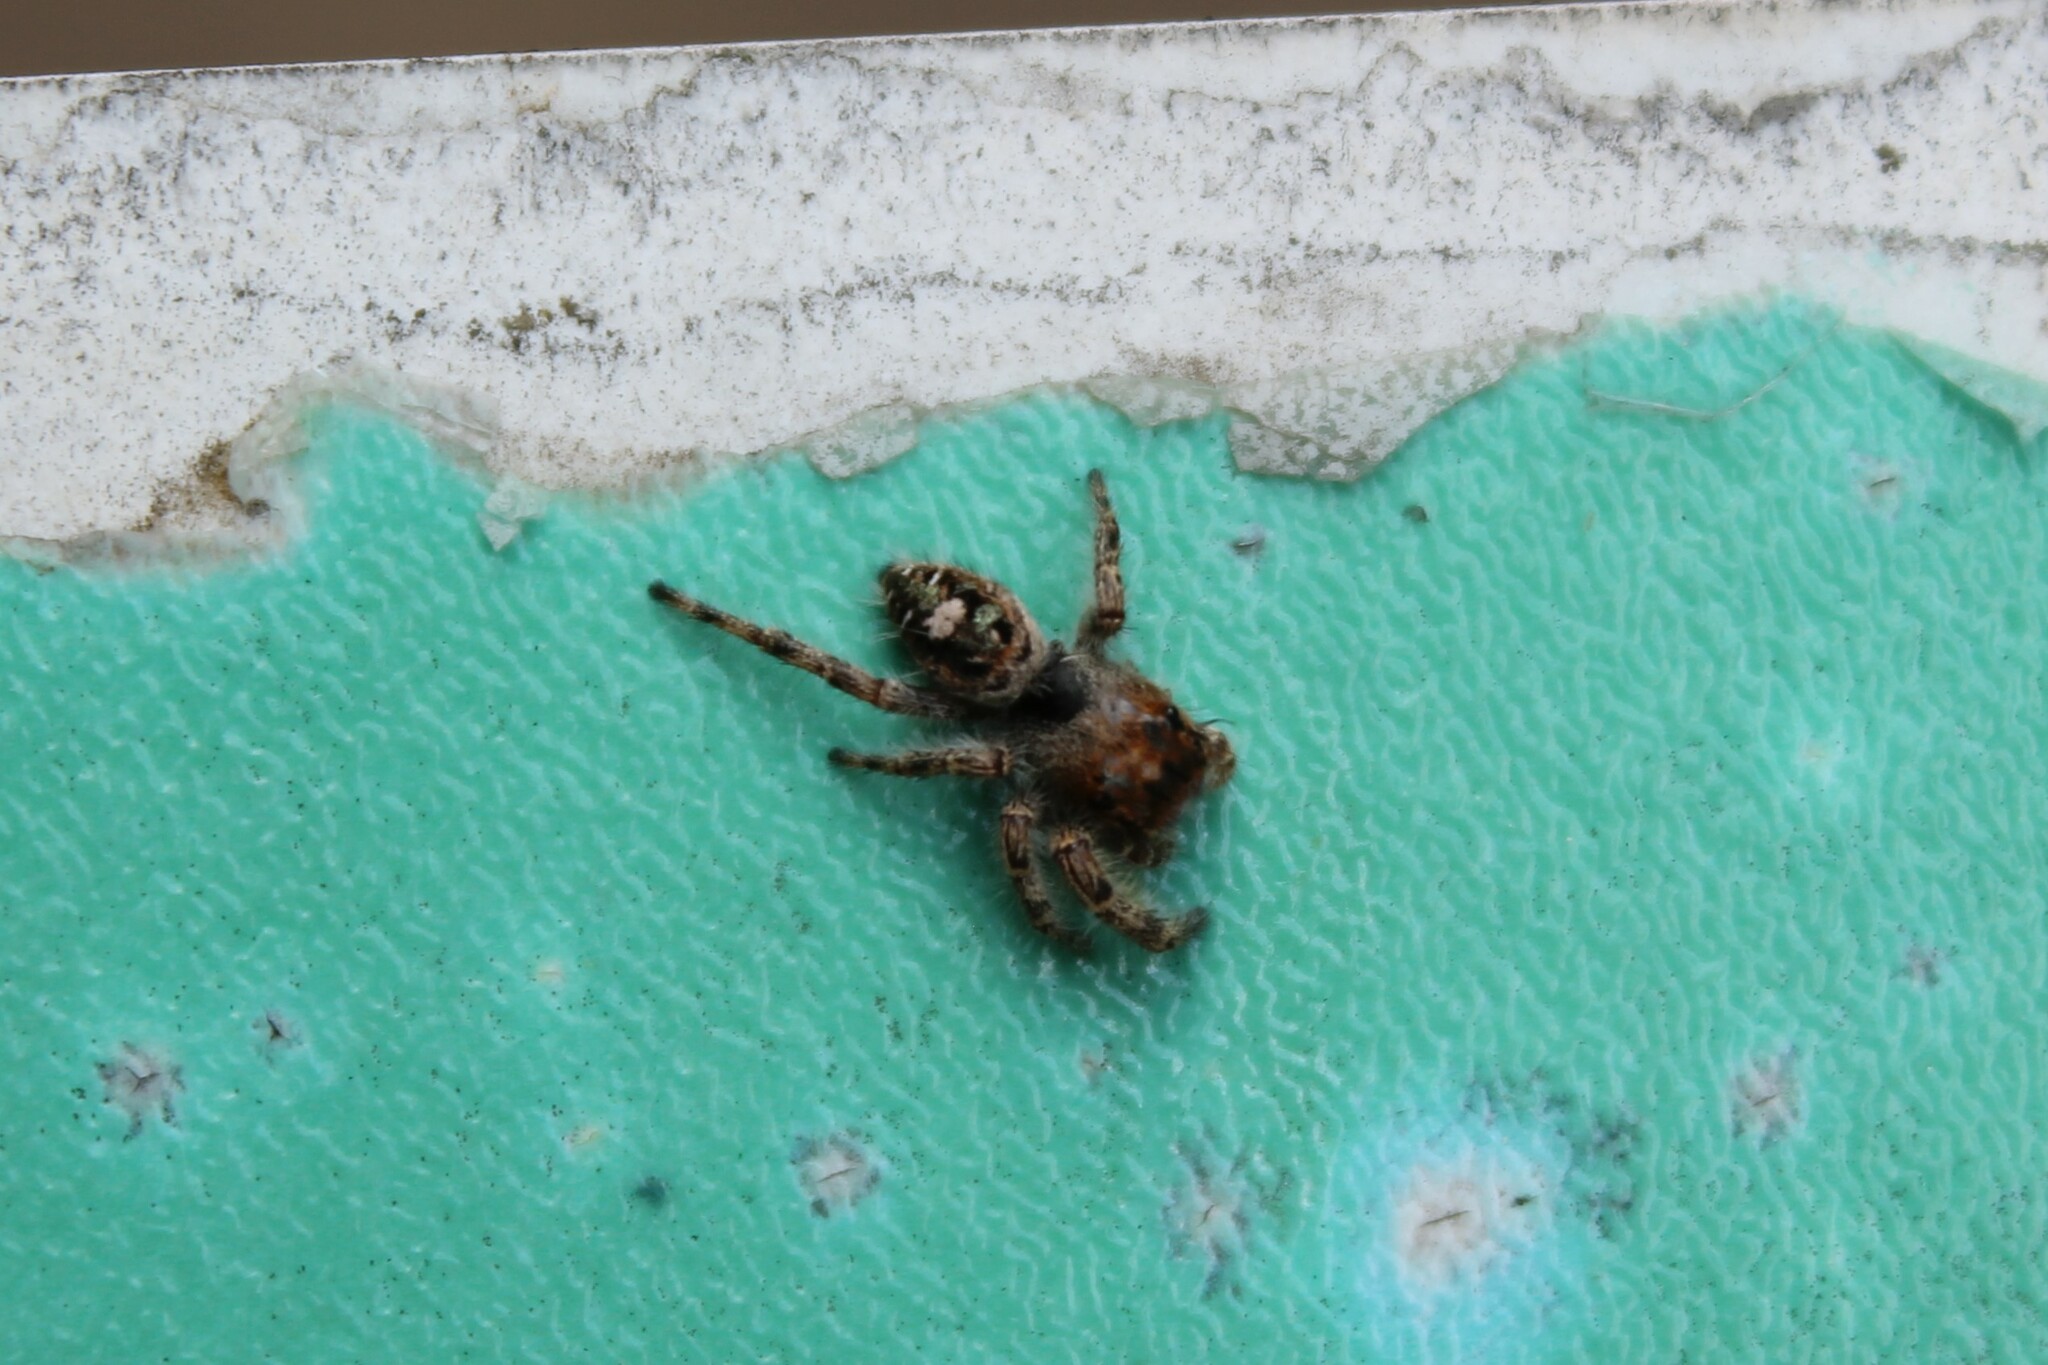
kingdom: Animalia
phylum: Arthropoda
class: Arachnida
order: Araneae
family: Salticidae
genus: Phidippus
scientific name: Phidippus putnami
